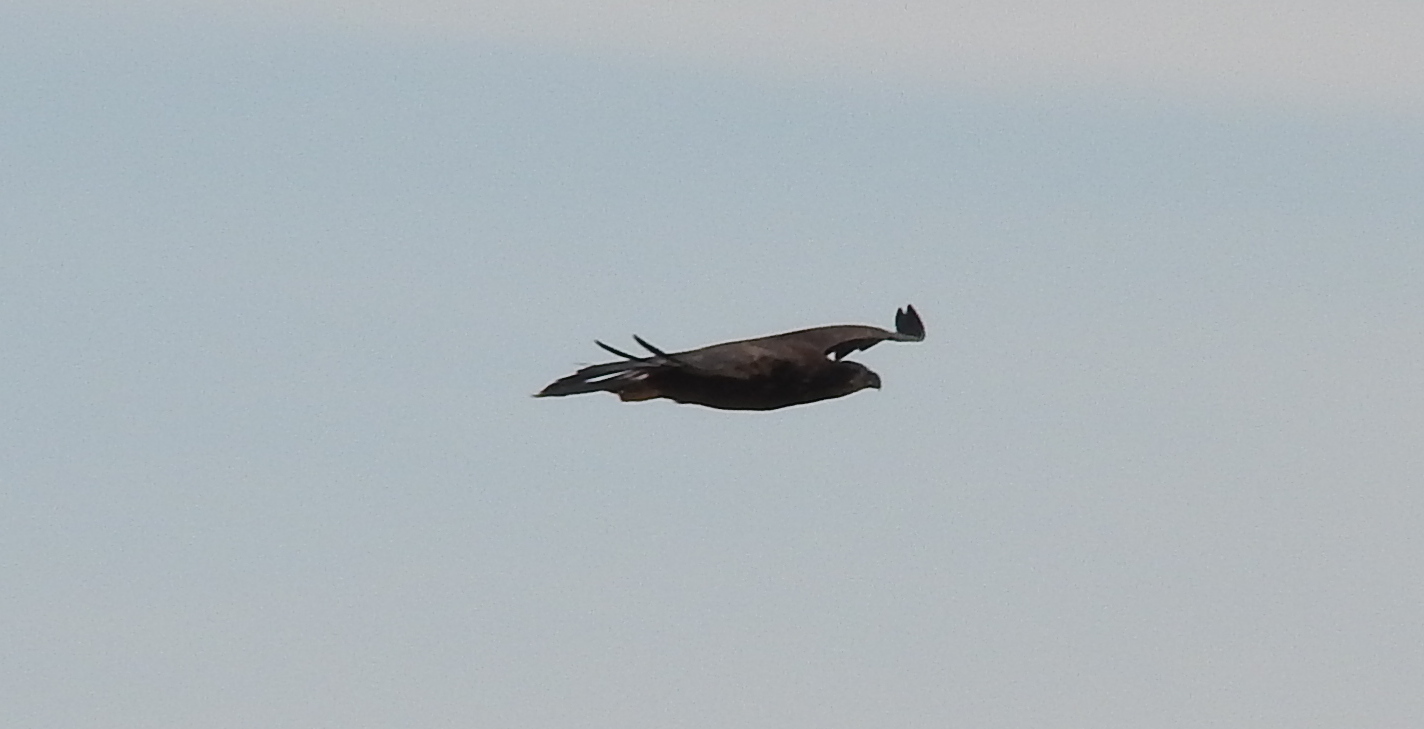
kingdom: Animalia
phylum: Chordata
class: Aves
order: Accipitriformes
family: Accipitridae
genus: Haliaeetus
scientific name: Haliaeetus leucocephalus
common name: Bald eagle
